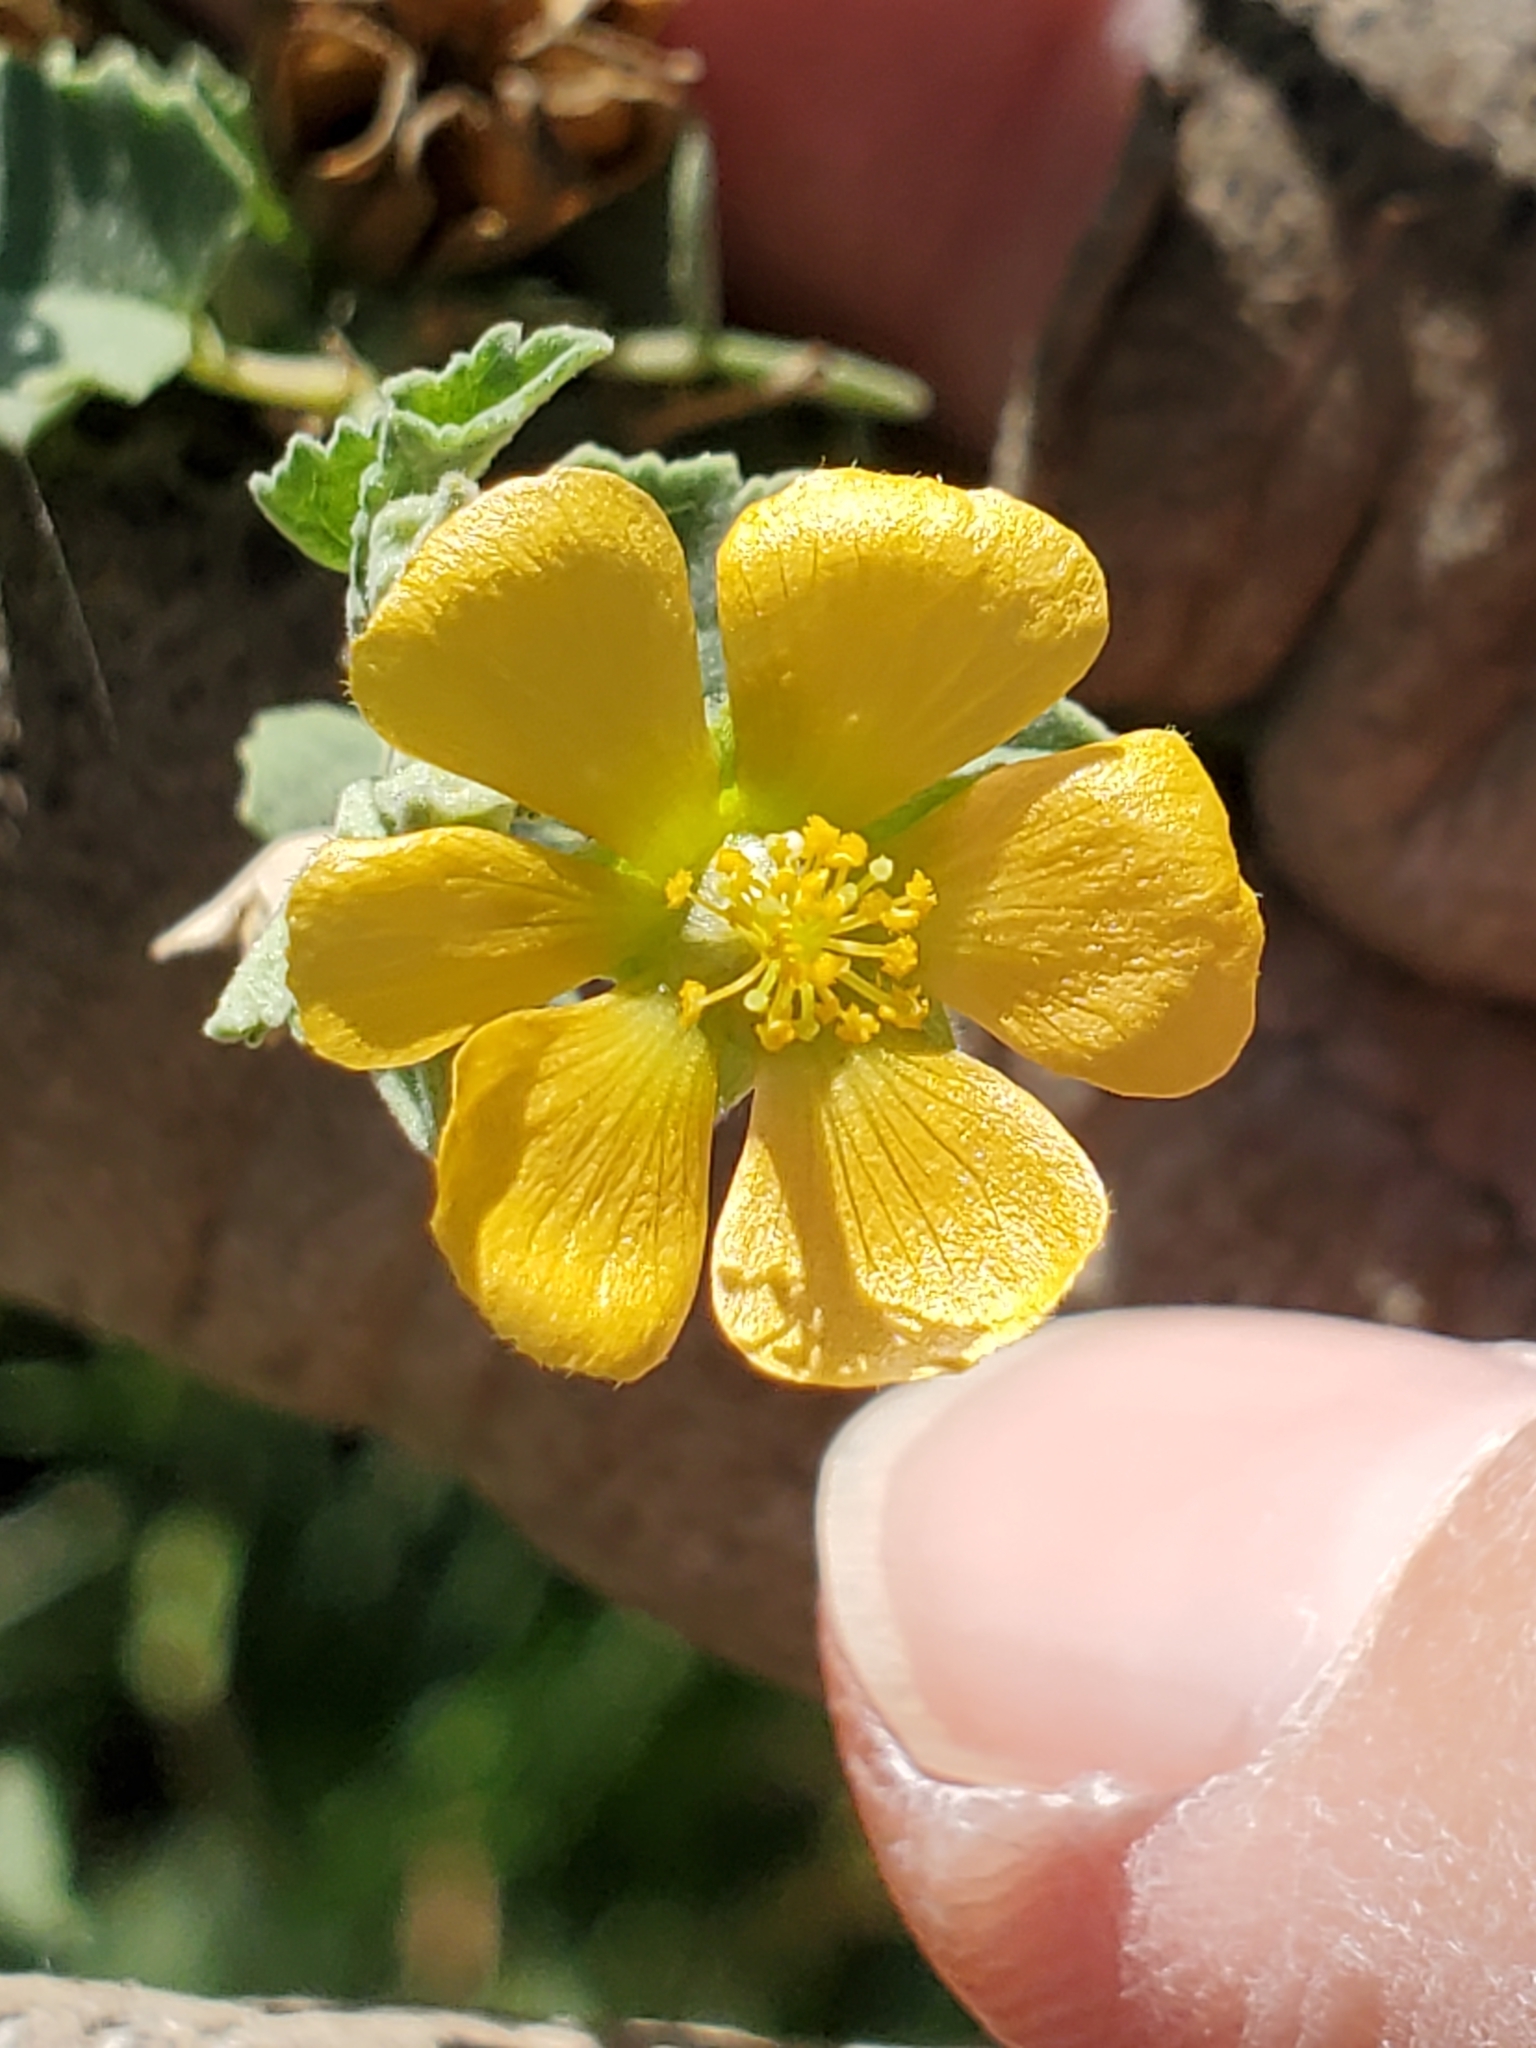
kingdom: Plantae
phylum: Tracheophyta
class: Magnoliopsida
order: Malvales
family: Malvaceae
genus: Abutilon
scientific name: Abutilon fruticosum
